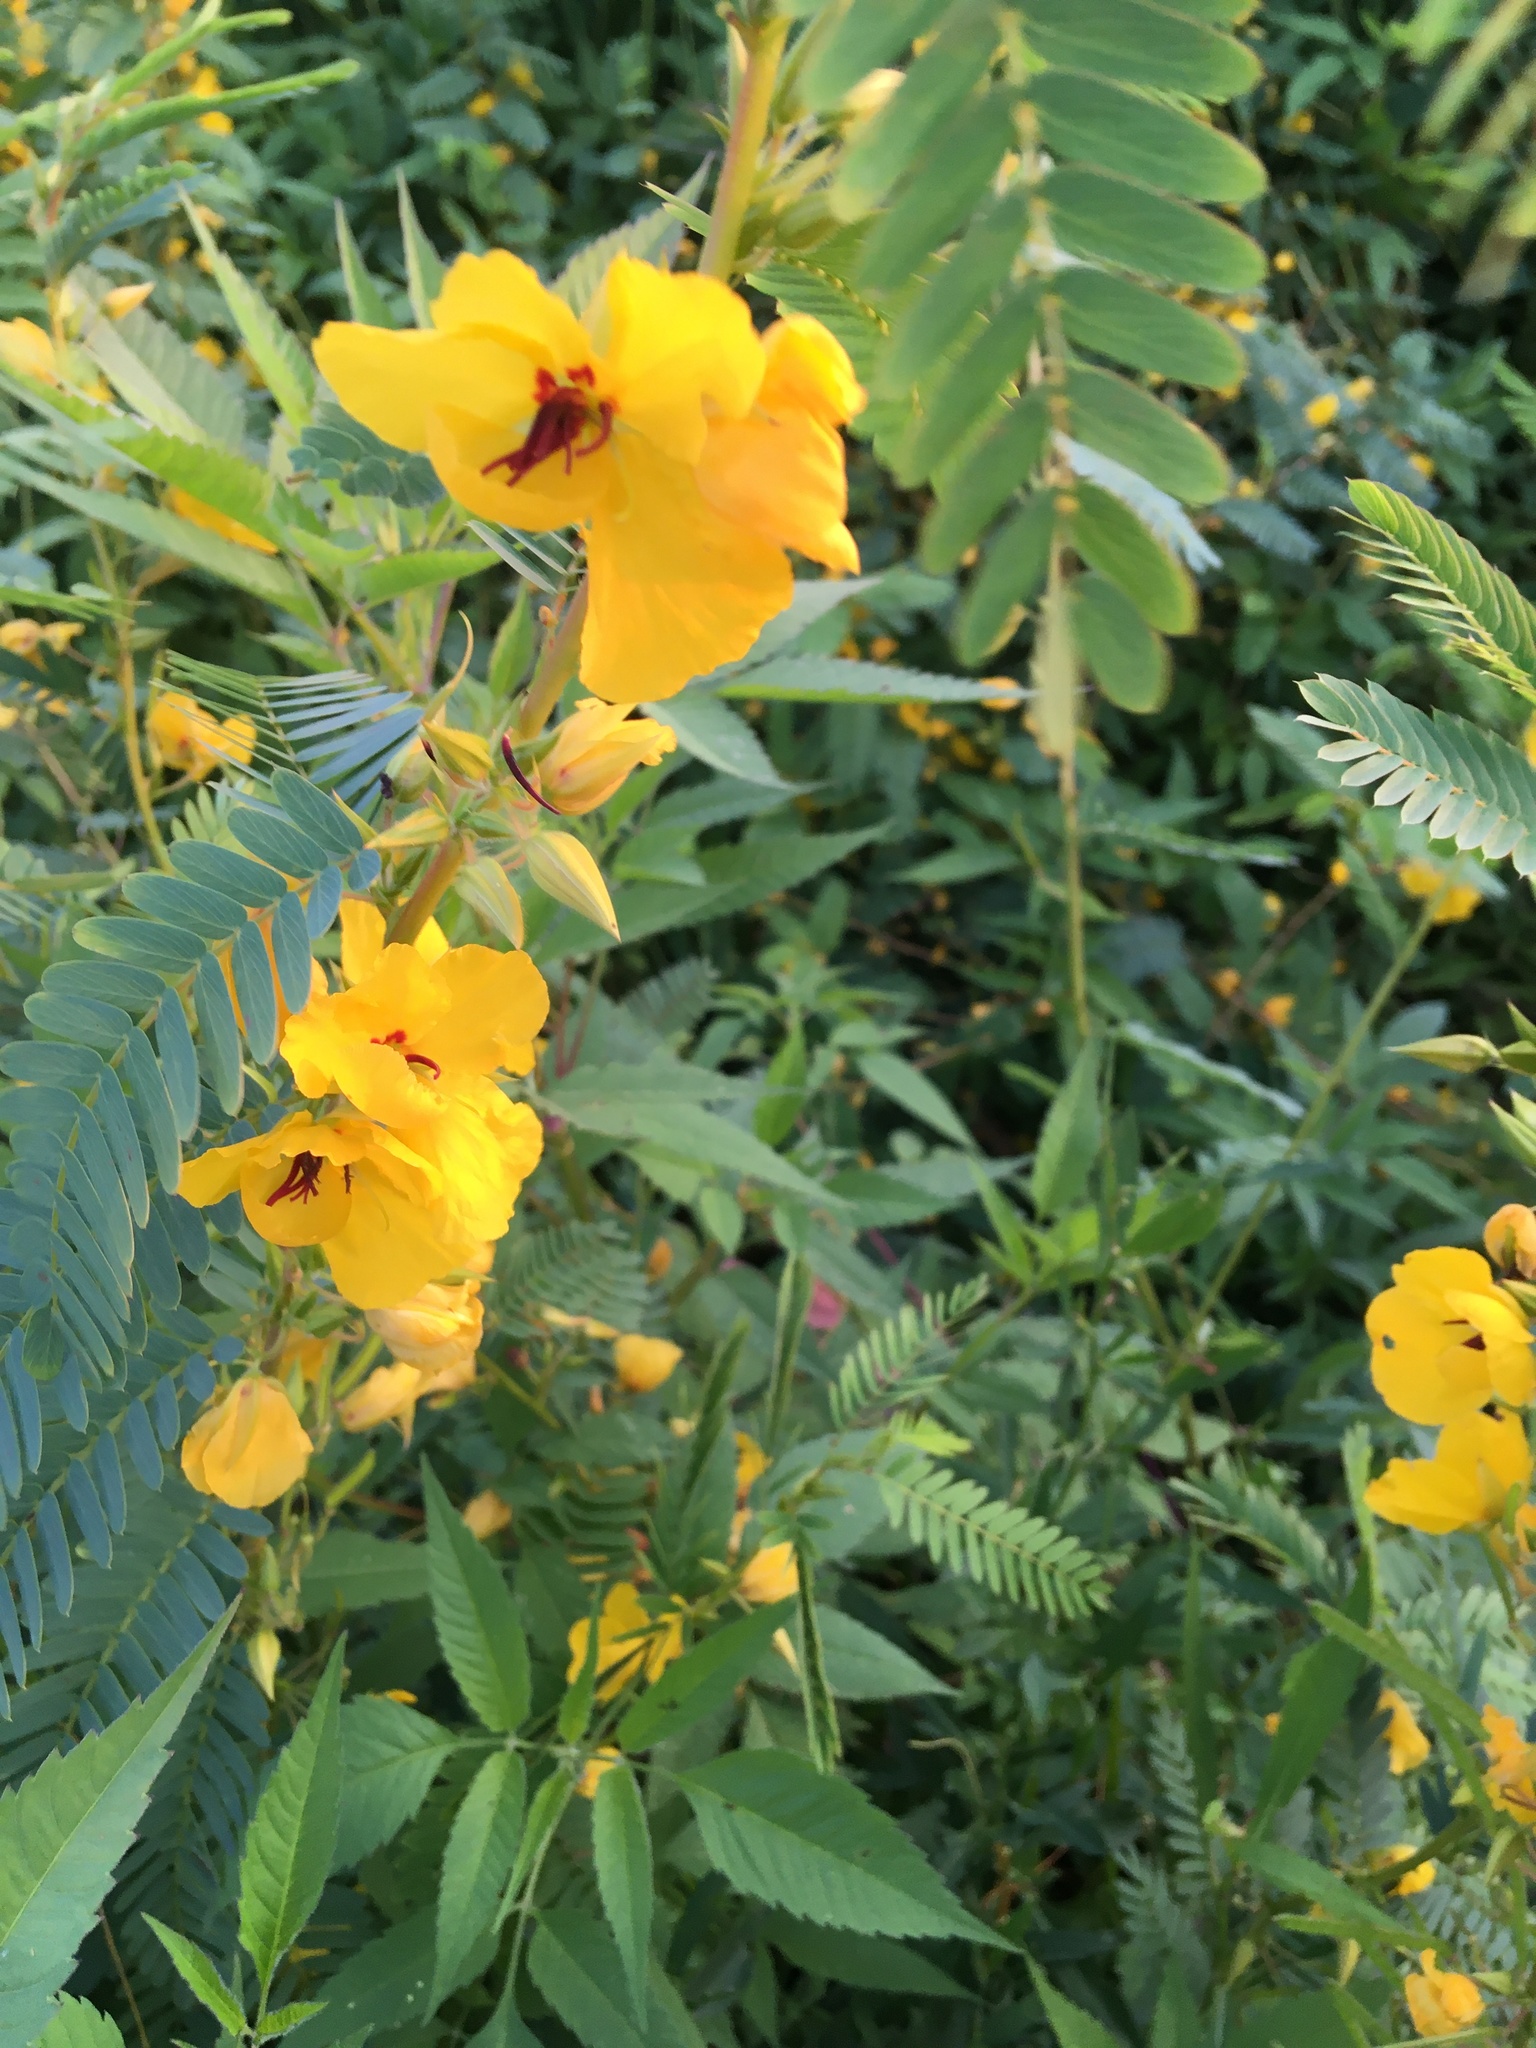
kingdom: Plantae
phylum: Tracheophyta
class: Magnoliopsida
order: Fabales
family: Fabaceae
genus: Chamaecrista
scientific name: Chamaecrista fasciculata
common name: Golden cassia
